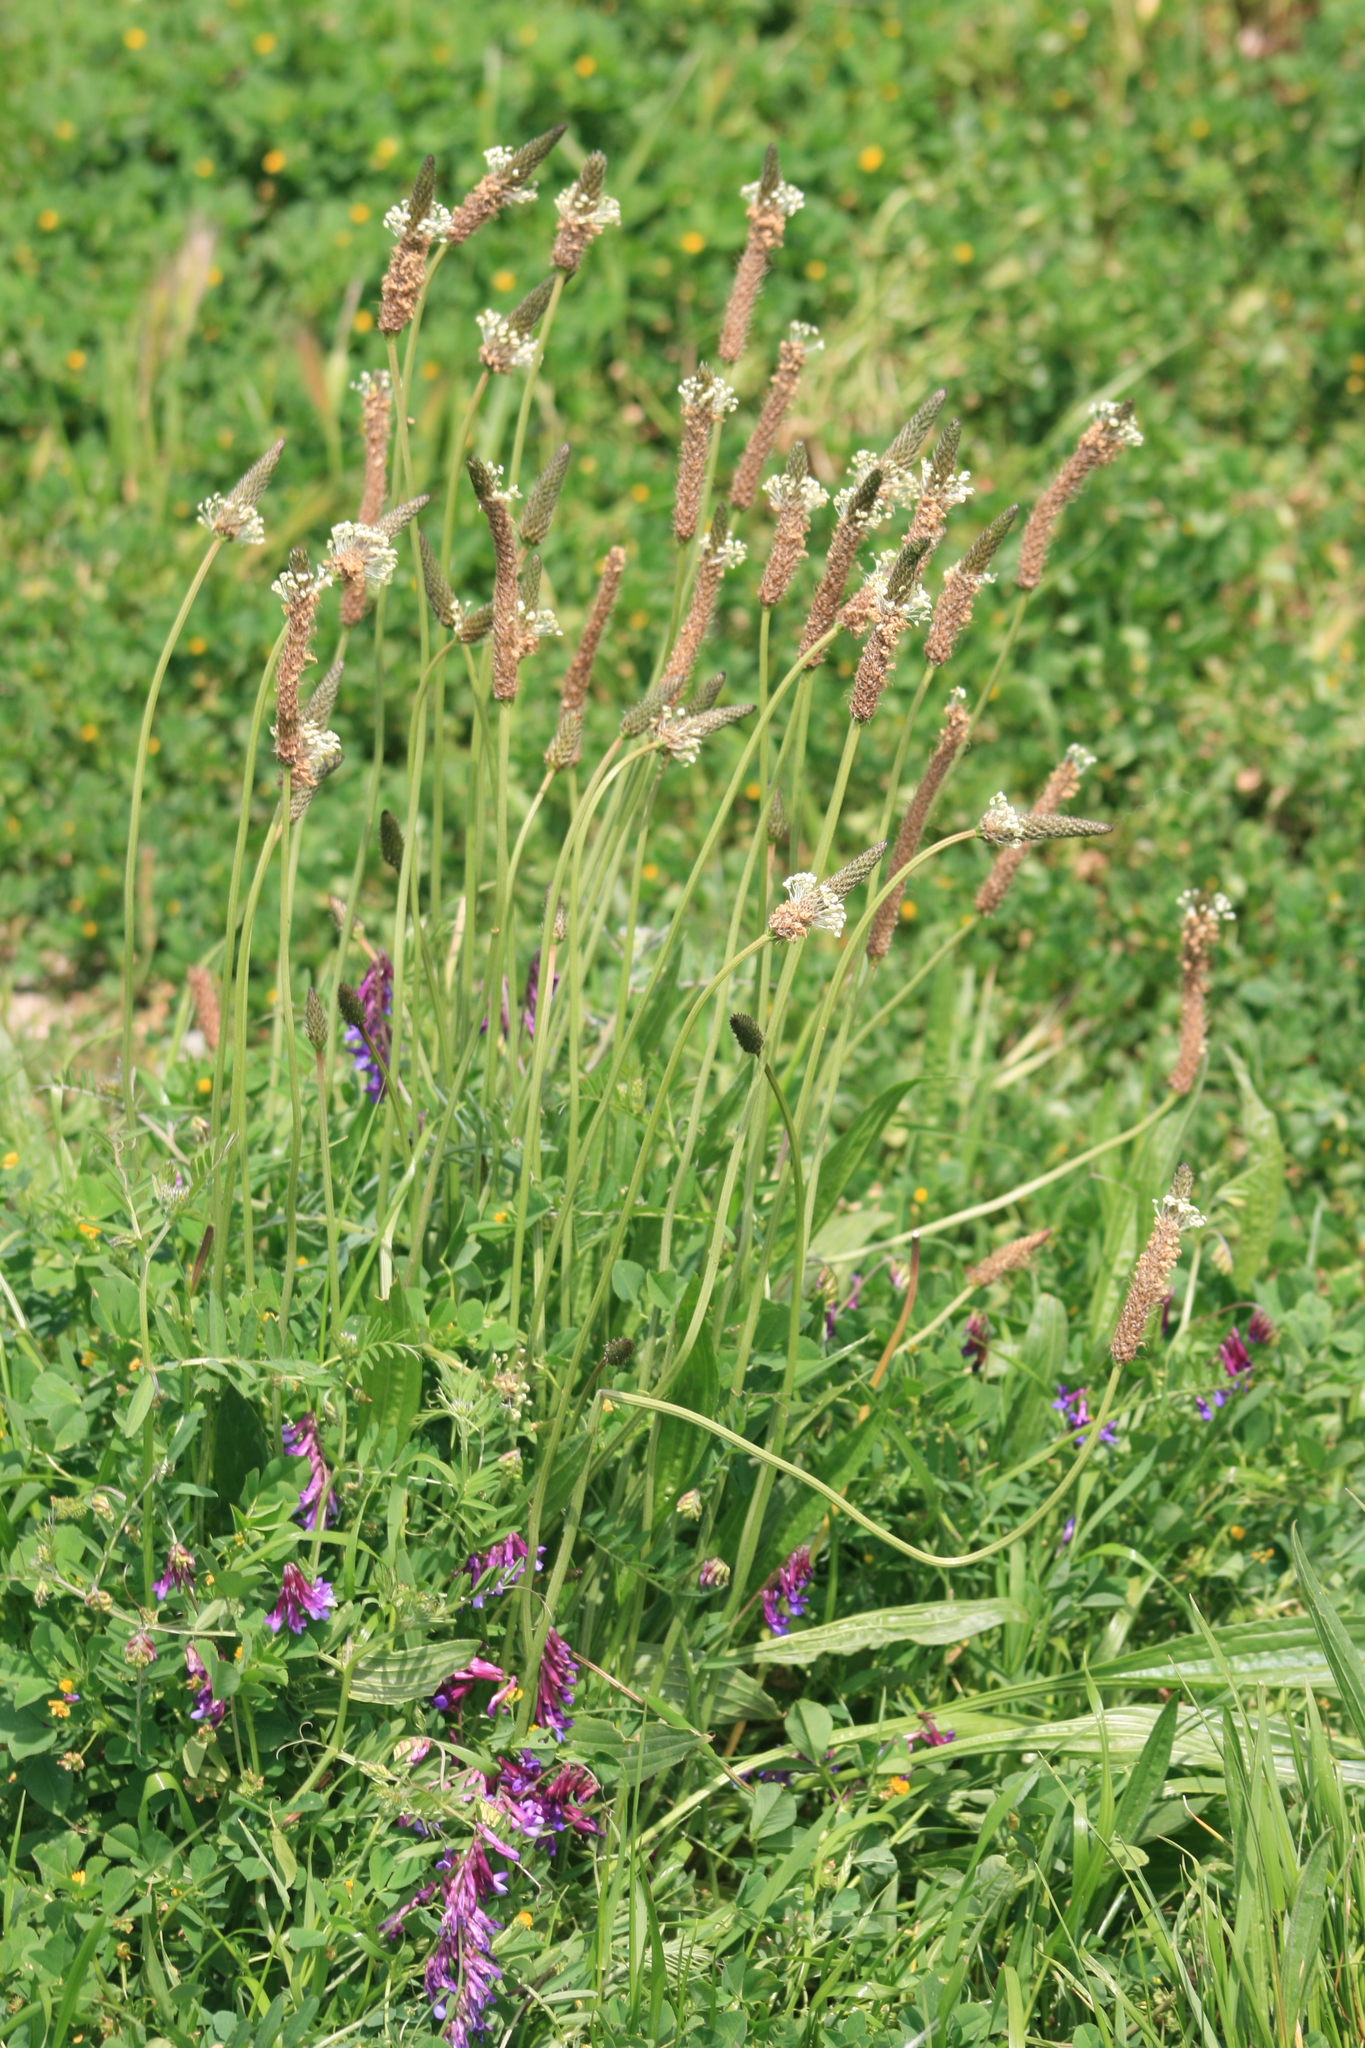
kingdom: Plantae
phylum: Tracheophyta
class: Magnoliopsida
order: Lamiales
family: Plantaginaceae
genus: Plantago
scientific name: Plantago lanceolata
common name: Ribwort plantain
